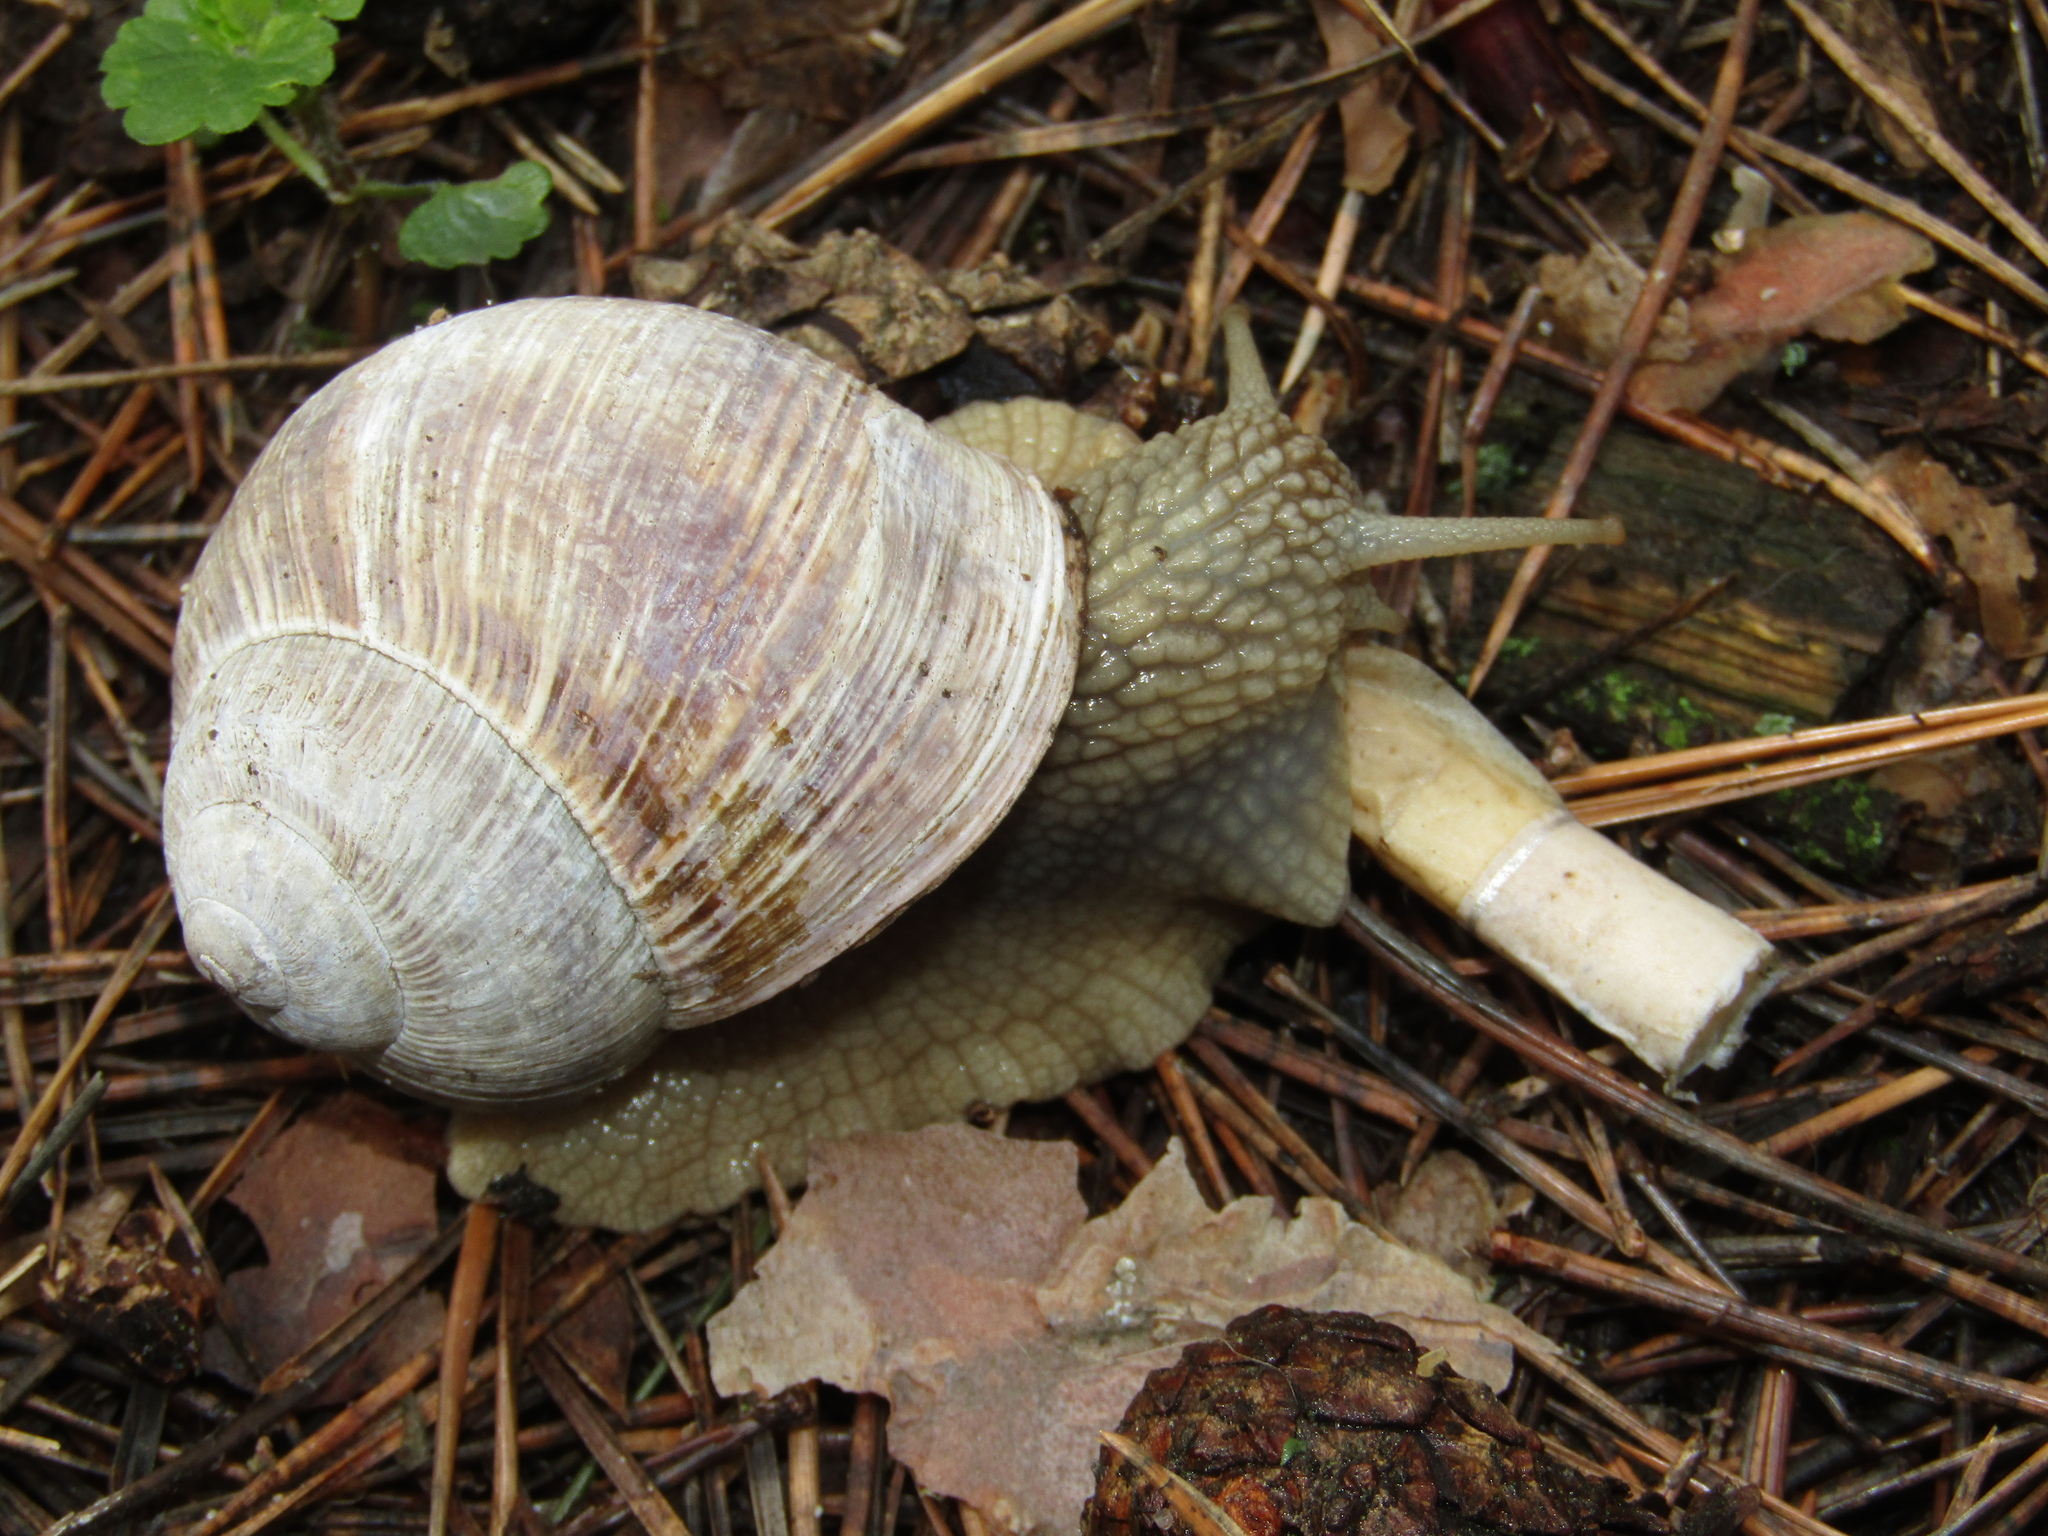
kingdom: Animalia
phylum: Mollusca
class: Gastropoda
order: Stylommatophora
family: Helicidae
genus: Helix
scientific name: Helix pomatia
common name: Roman snail
